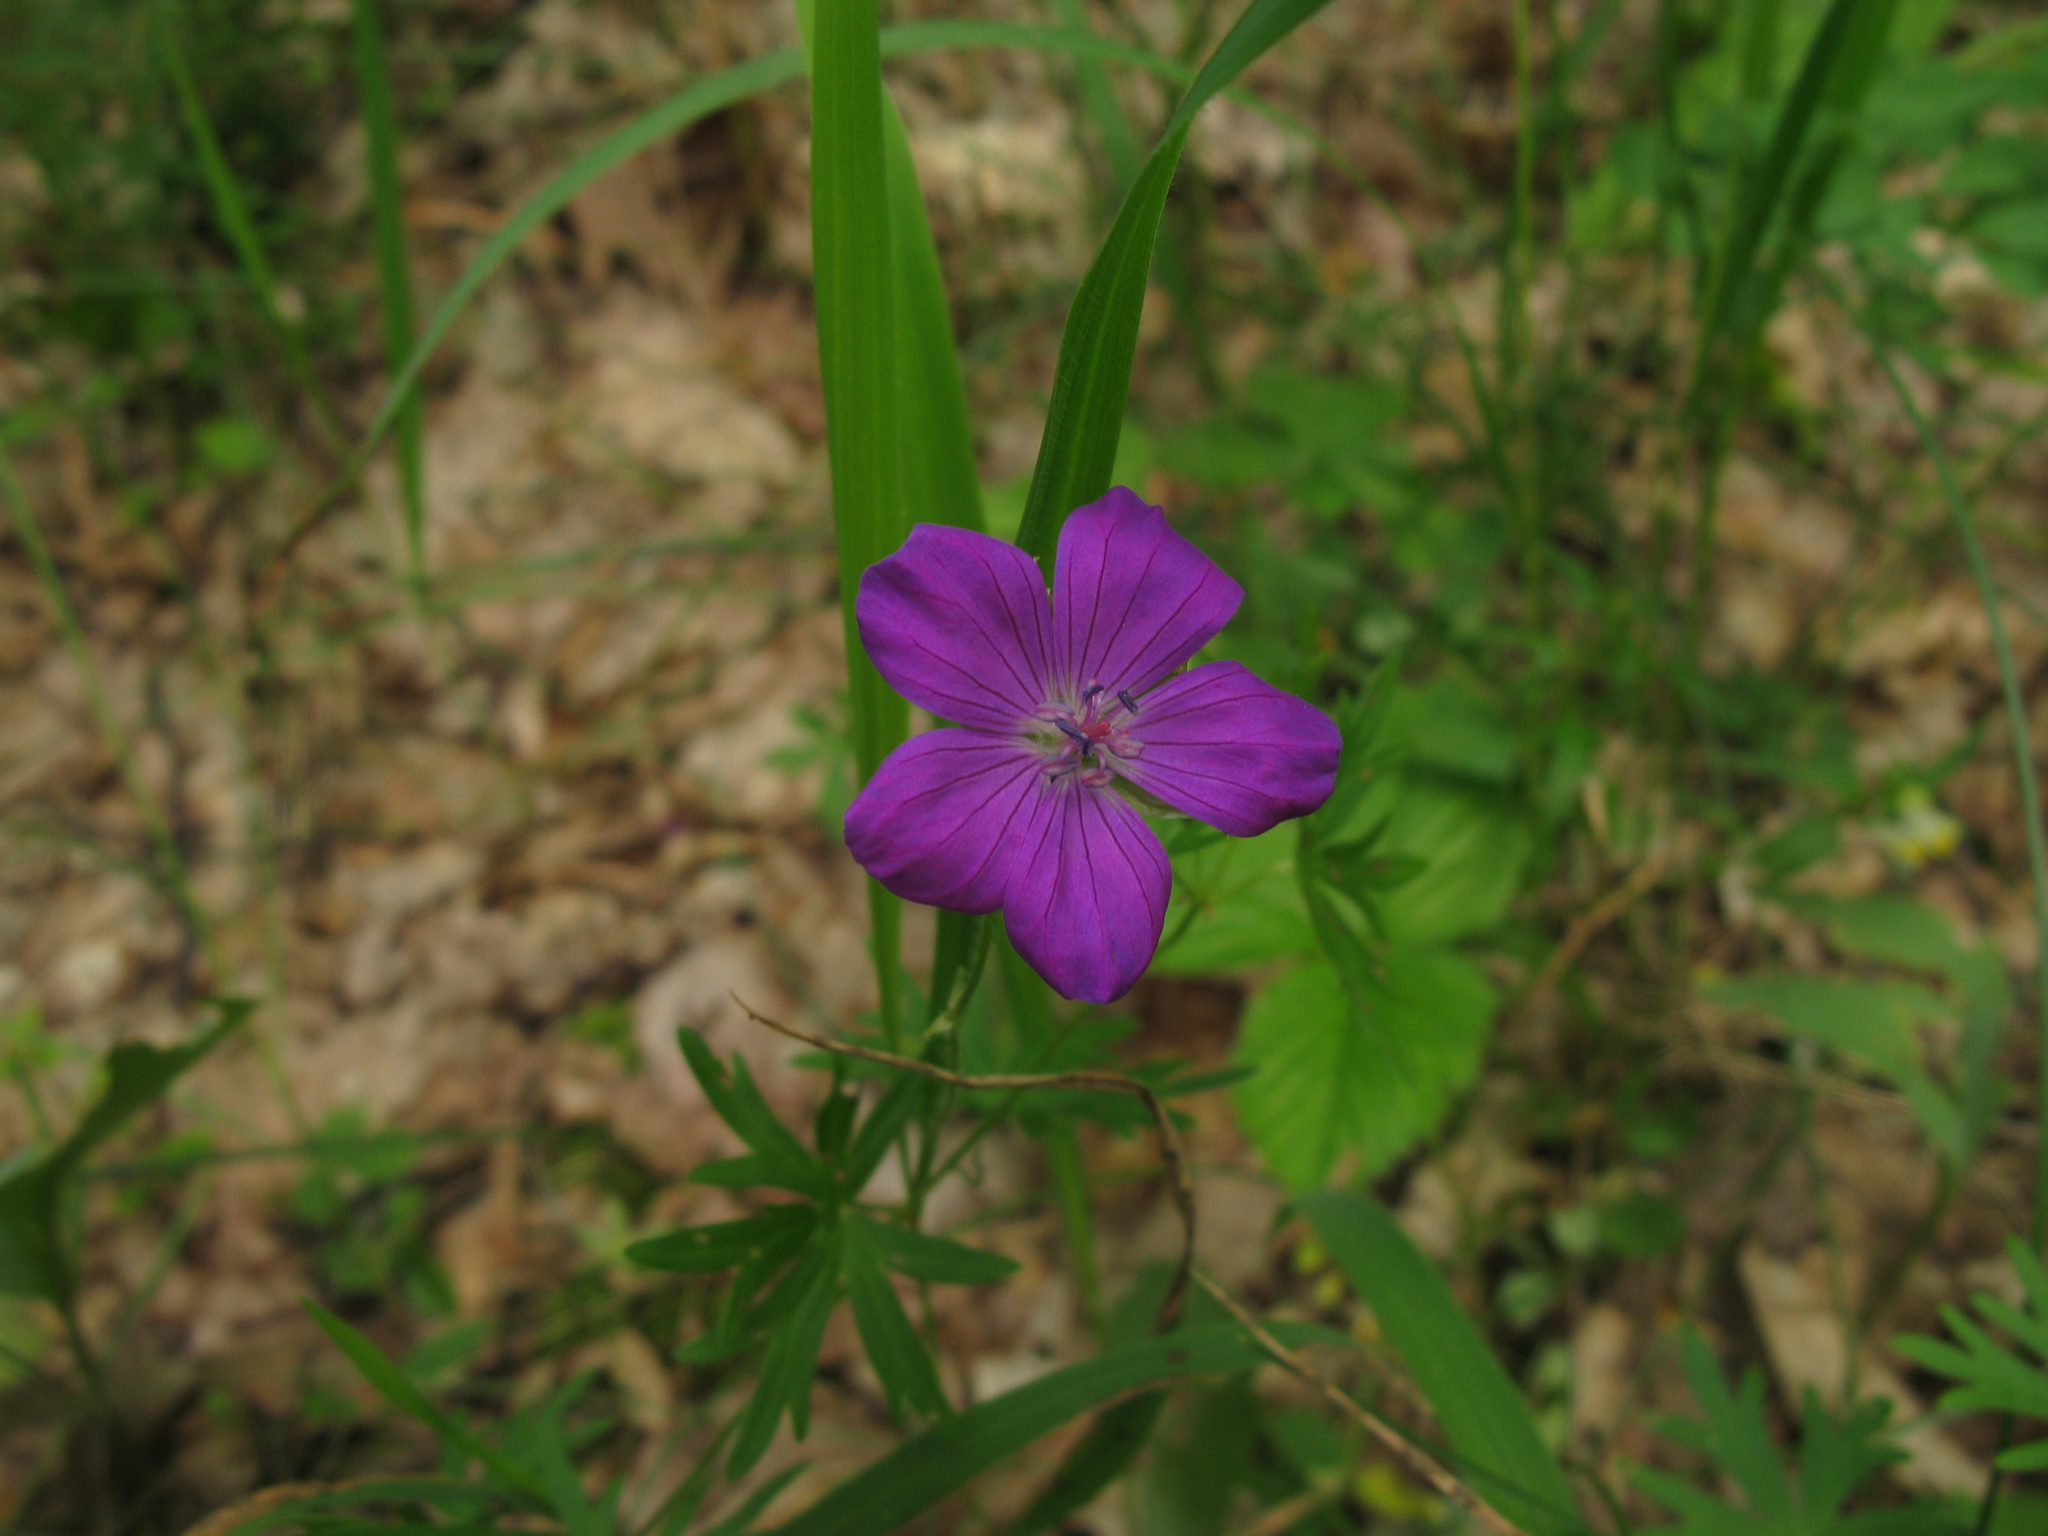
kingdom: Plantae
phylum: Tracheophyta
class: Magnoliopsida
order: Geraniales
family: Geraniaceae
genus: Geranium
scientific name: Geranium sanguineum
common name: Bloody crane's-bill
